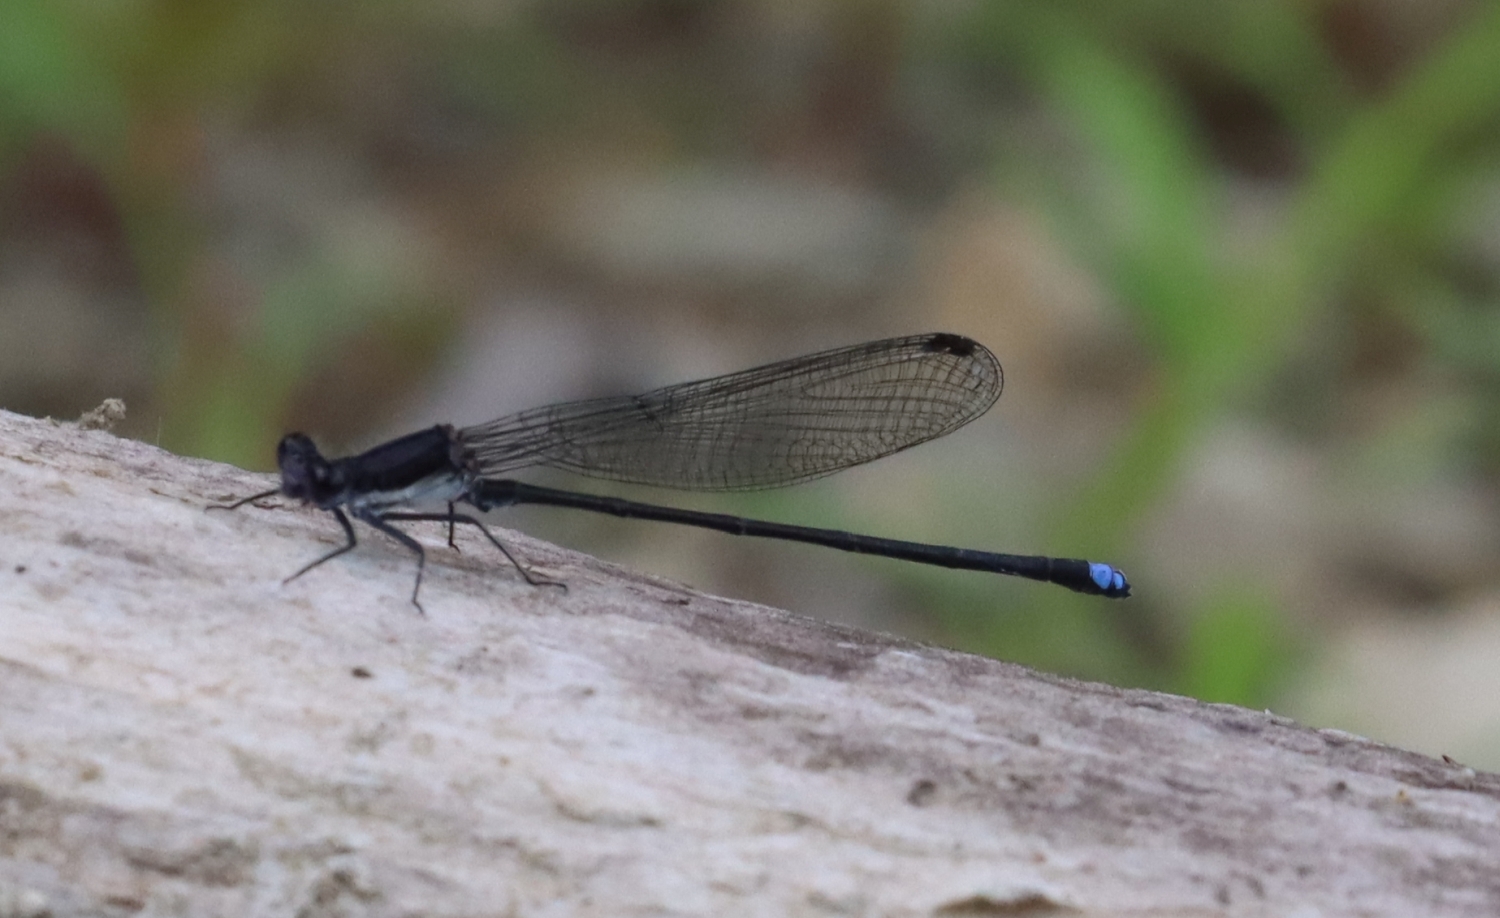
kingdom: Animalia
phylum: Arthropoda
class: Insecta
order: Odonata
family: Coenagrionidae
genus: Argia
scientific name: Argia tibialis
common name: Blue-tipped dancer
